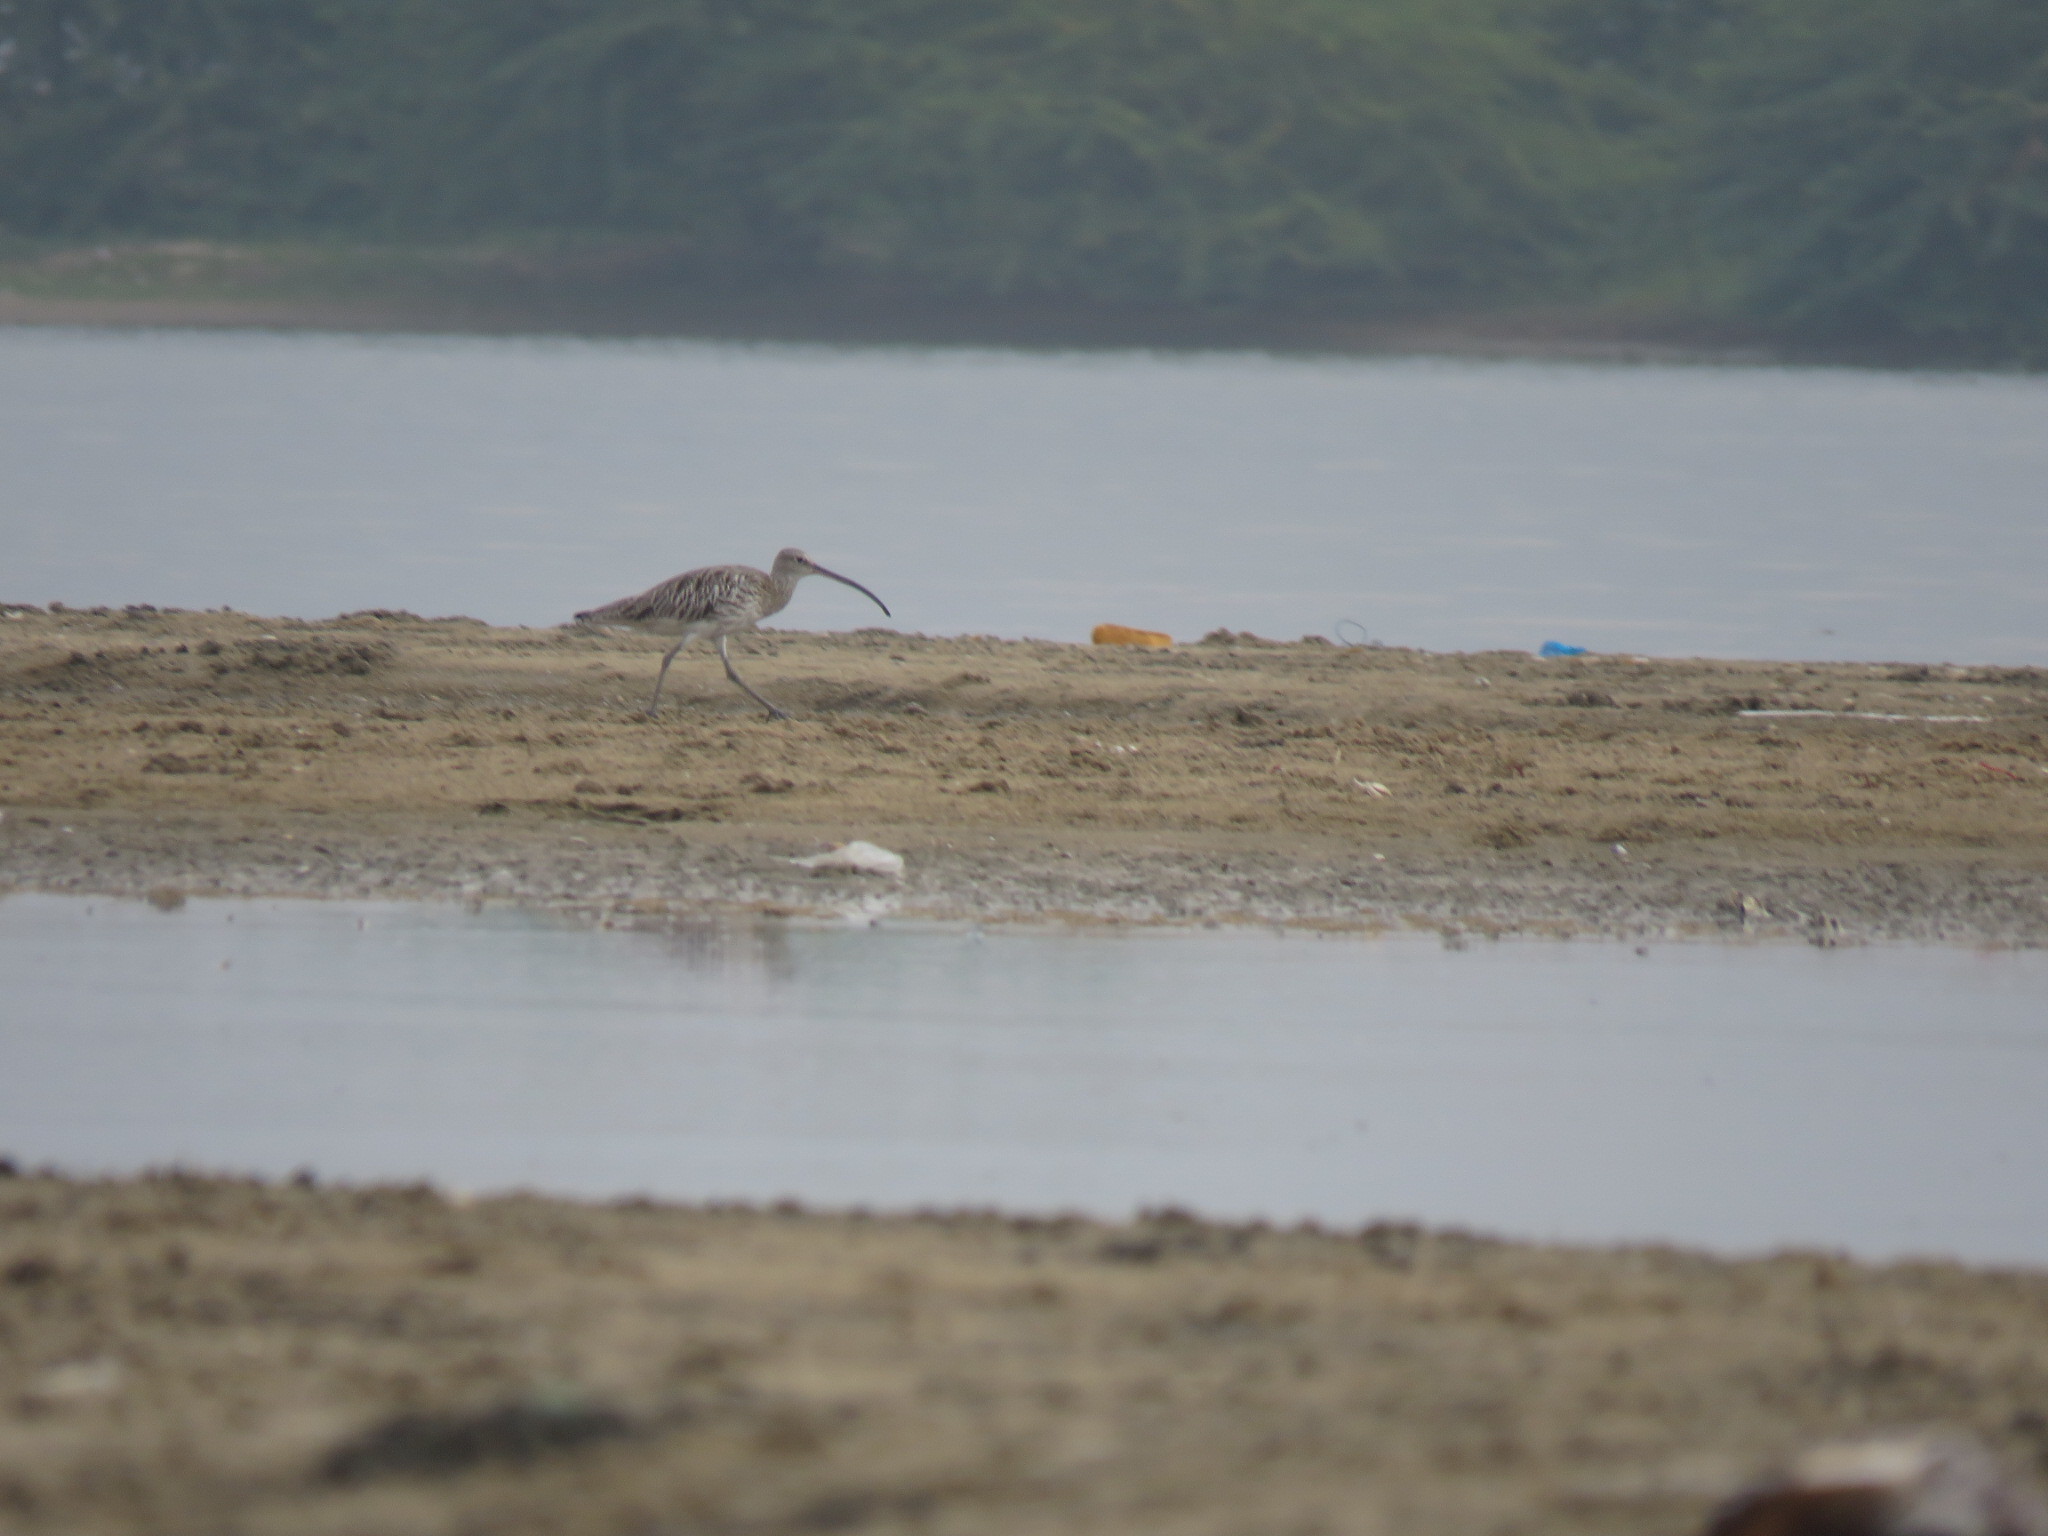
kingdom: Animalia
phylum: Chordata
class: Aves
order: Charadriiformes
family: Scolopacidae
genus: Numenius
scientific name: Numenius arquata
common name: Eurasian curlew
